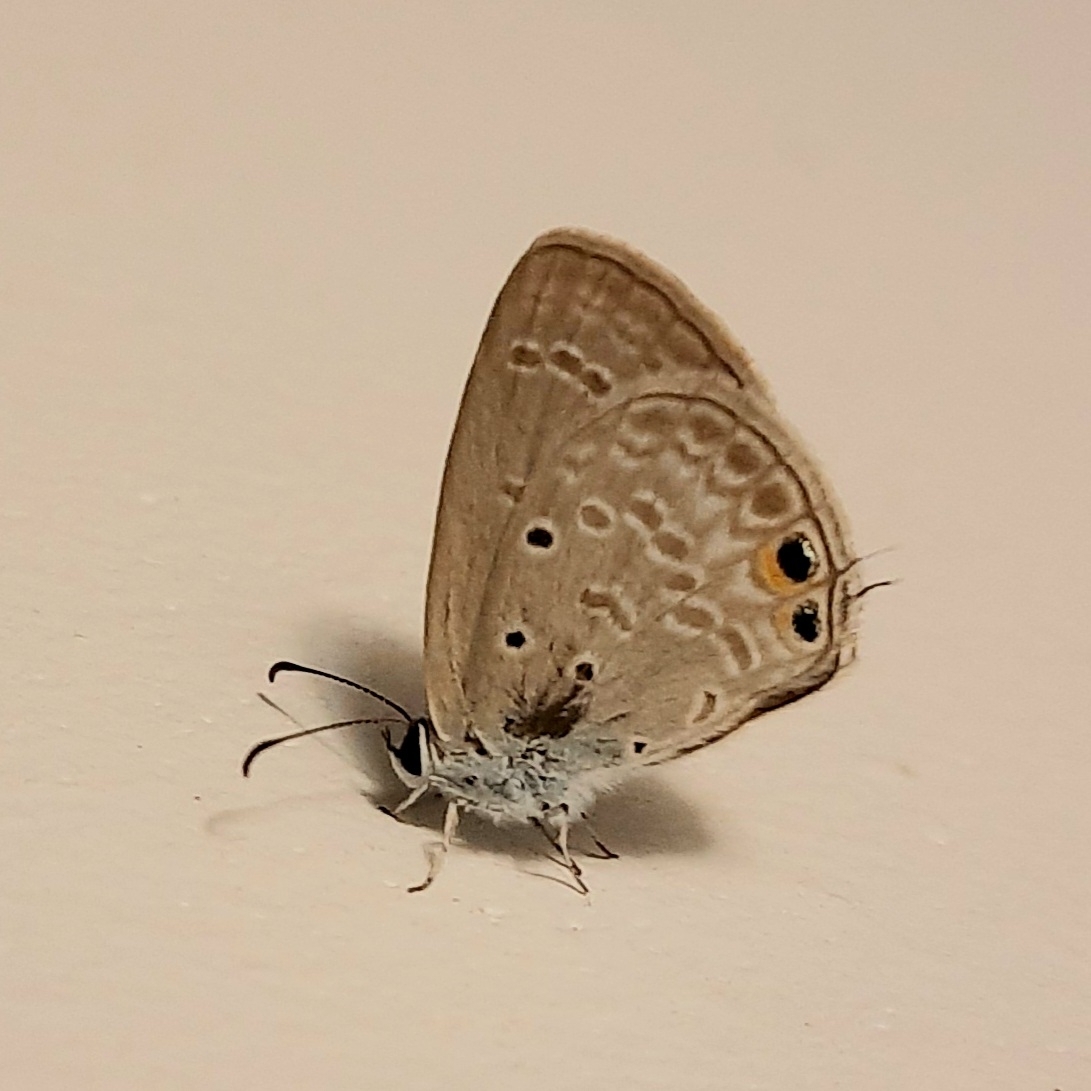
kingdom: Animalia
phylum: Arthropoda
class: Insecta
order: Lepidoptera
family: Lycaenidae
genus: Euchrysops
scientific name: Euchrysops cnejus
